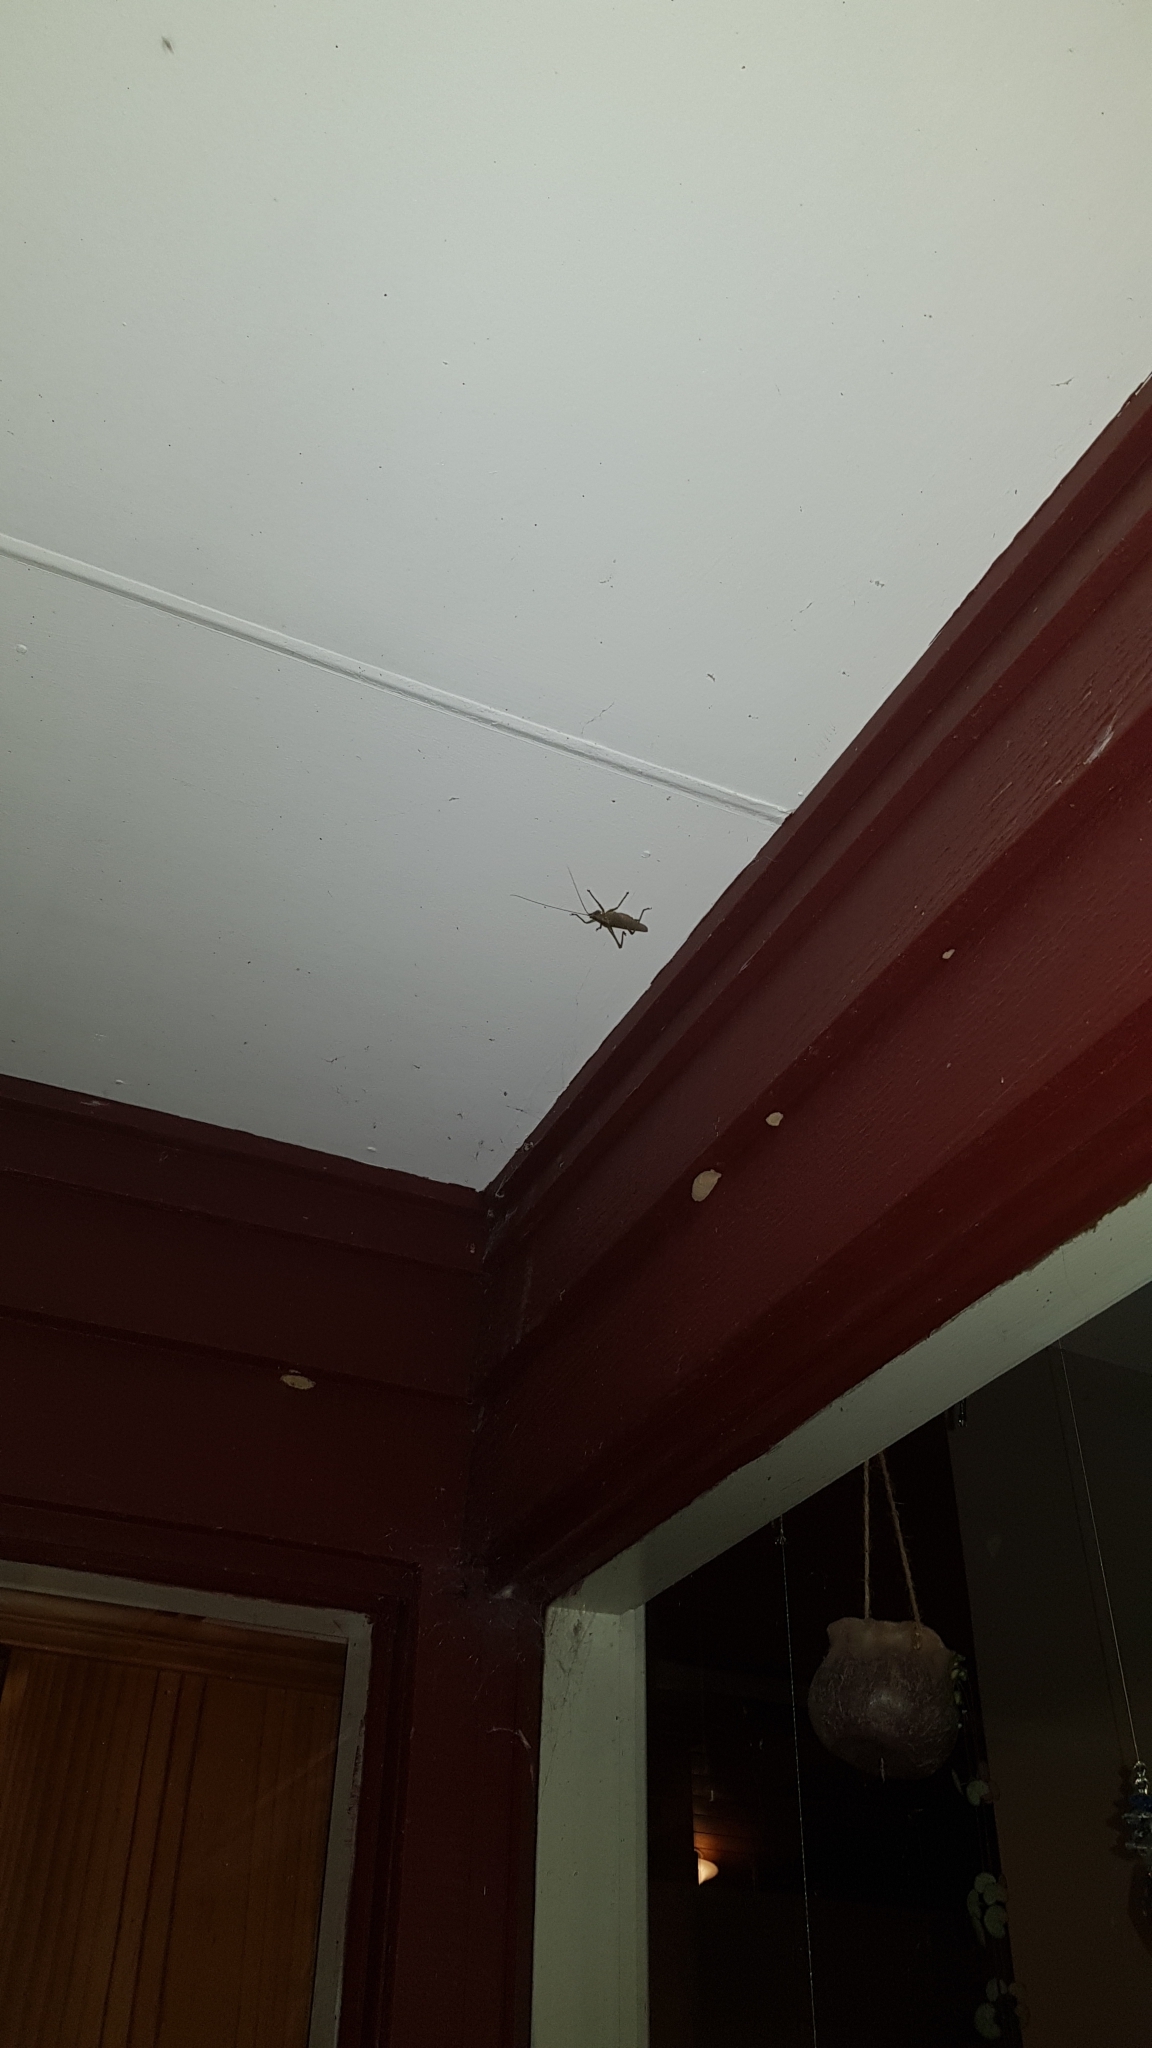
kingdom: Animalia
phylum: Arthropoda
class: Insecta
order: Orthoptera
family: Tettigoniidae
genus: Austrosalomona
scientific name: Austrosalomona falcata
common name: Olive-green coastal katydid
